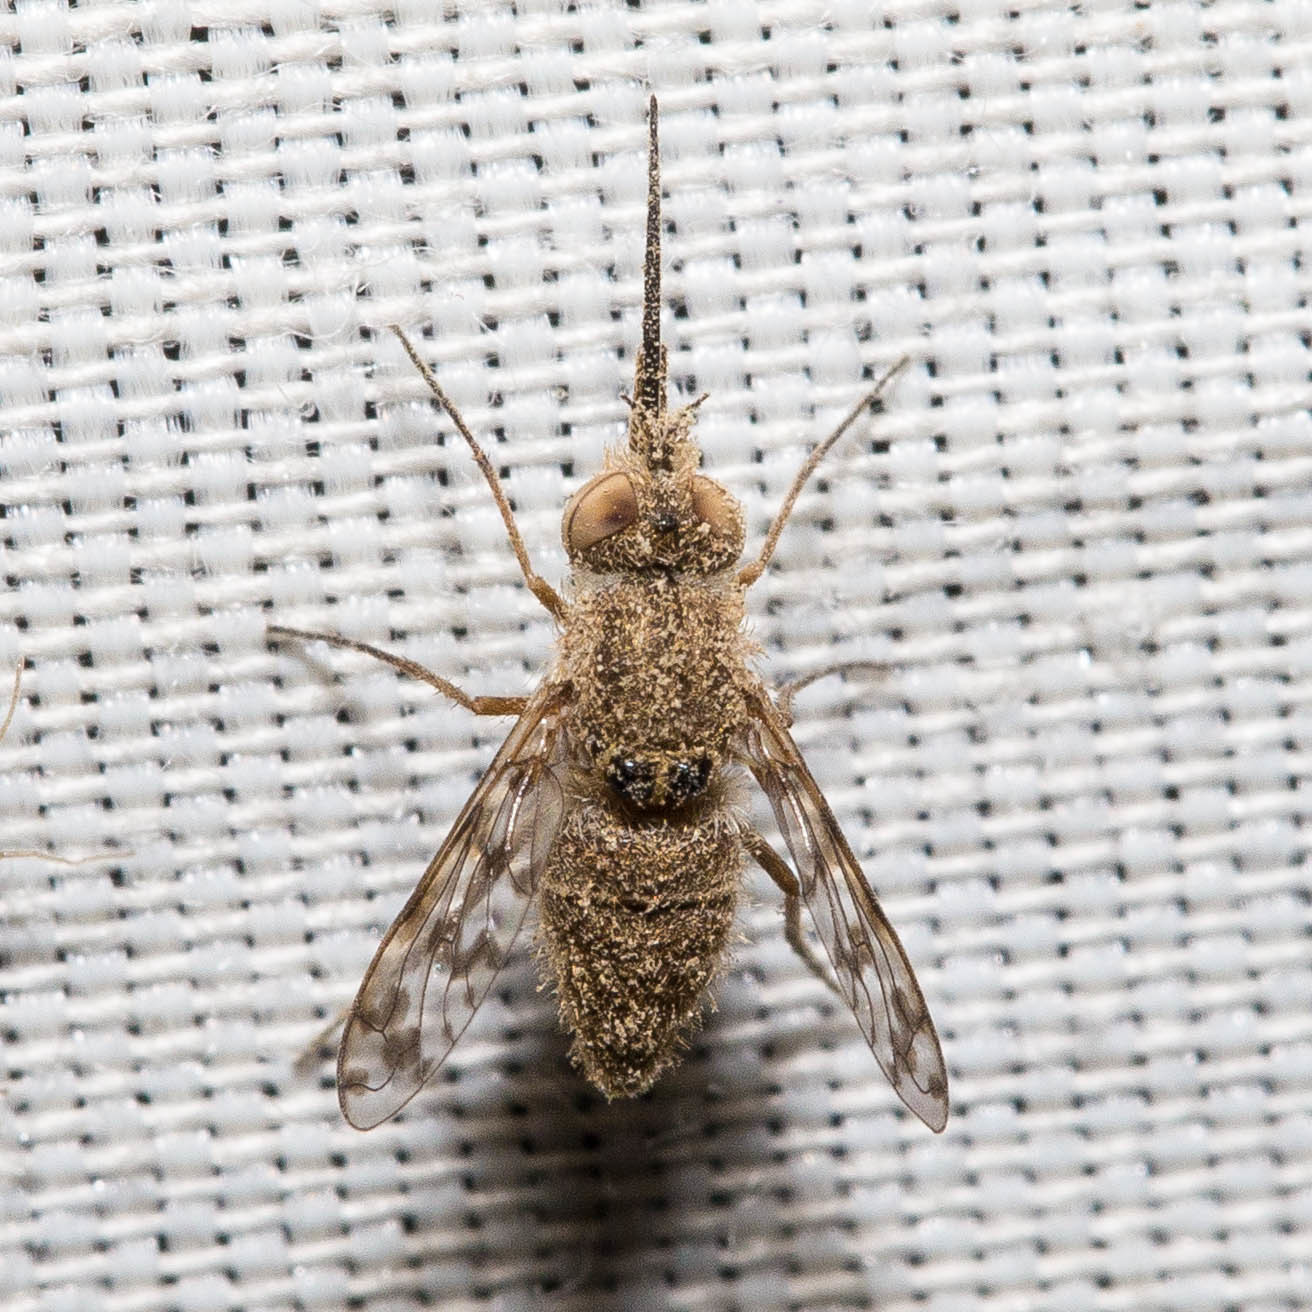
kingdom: Animalia
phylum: Arthropoda
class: Insecta
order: Diptera
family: Bombyliidae
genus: Geminaria
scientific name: Geminaria canalis
